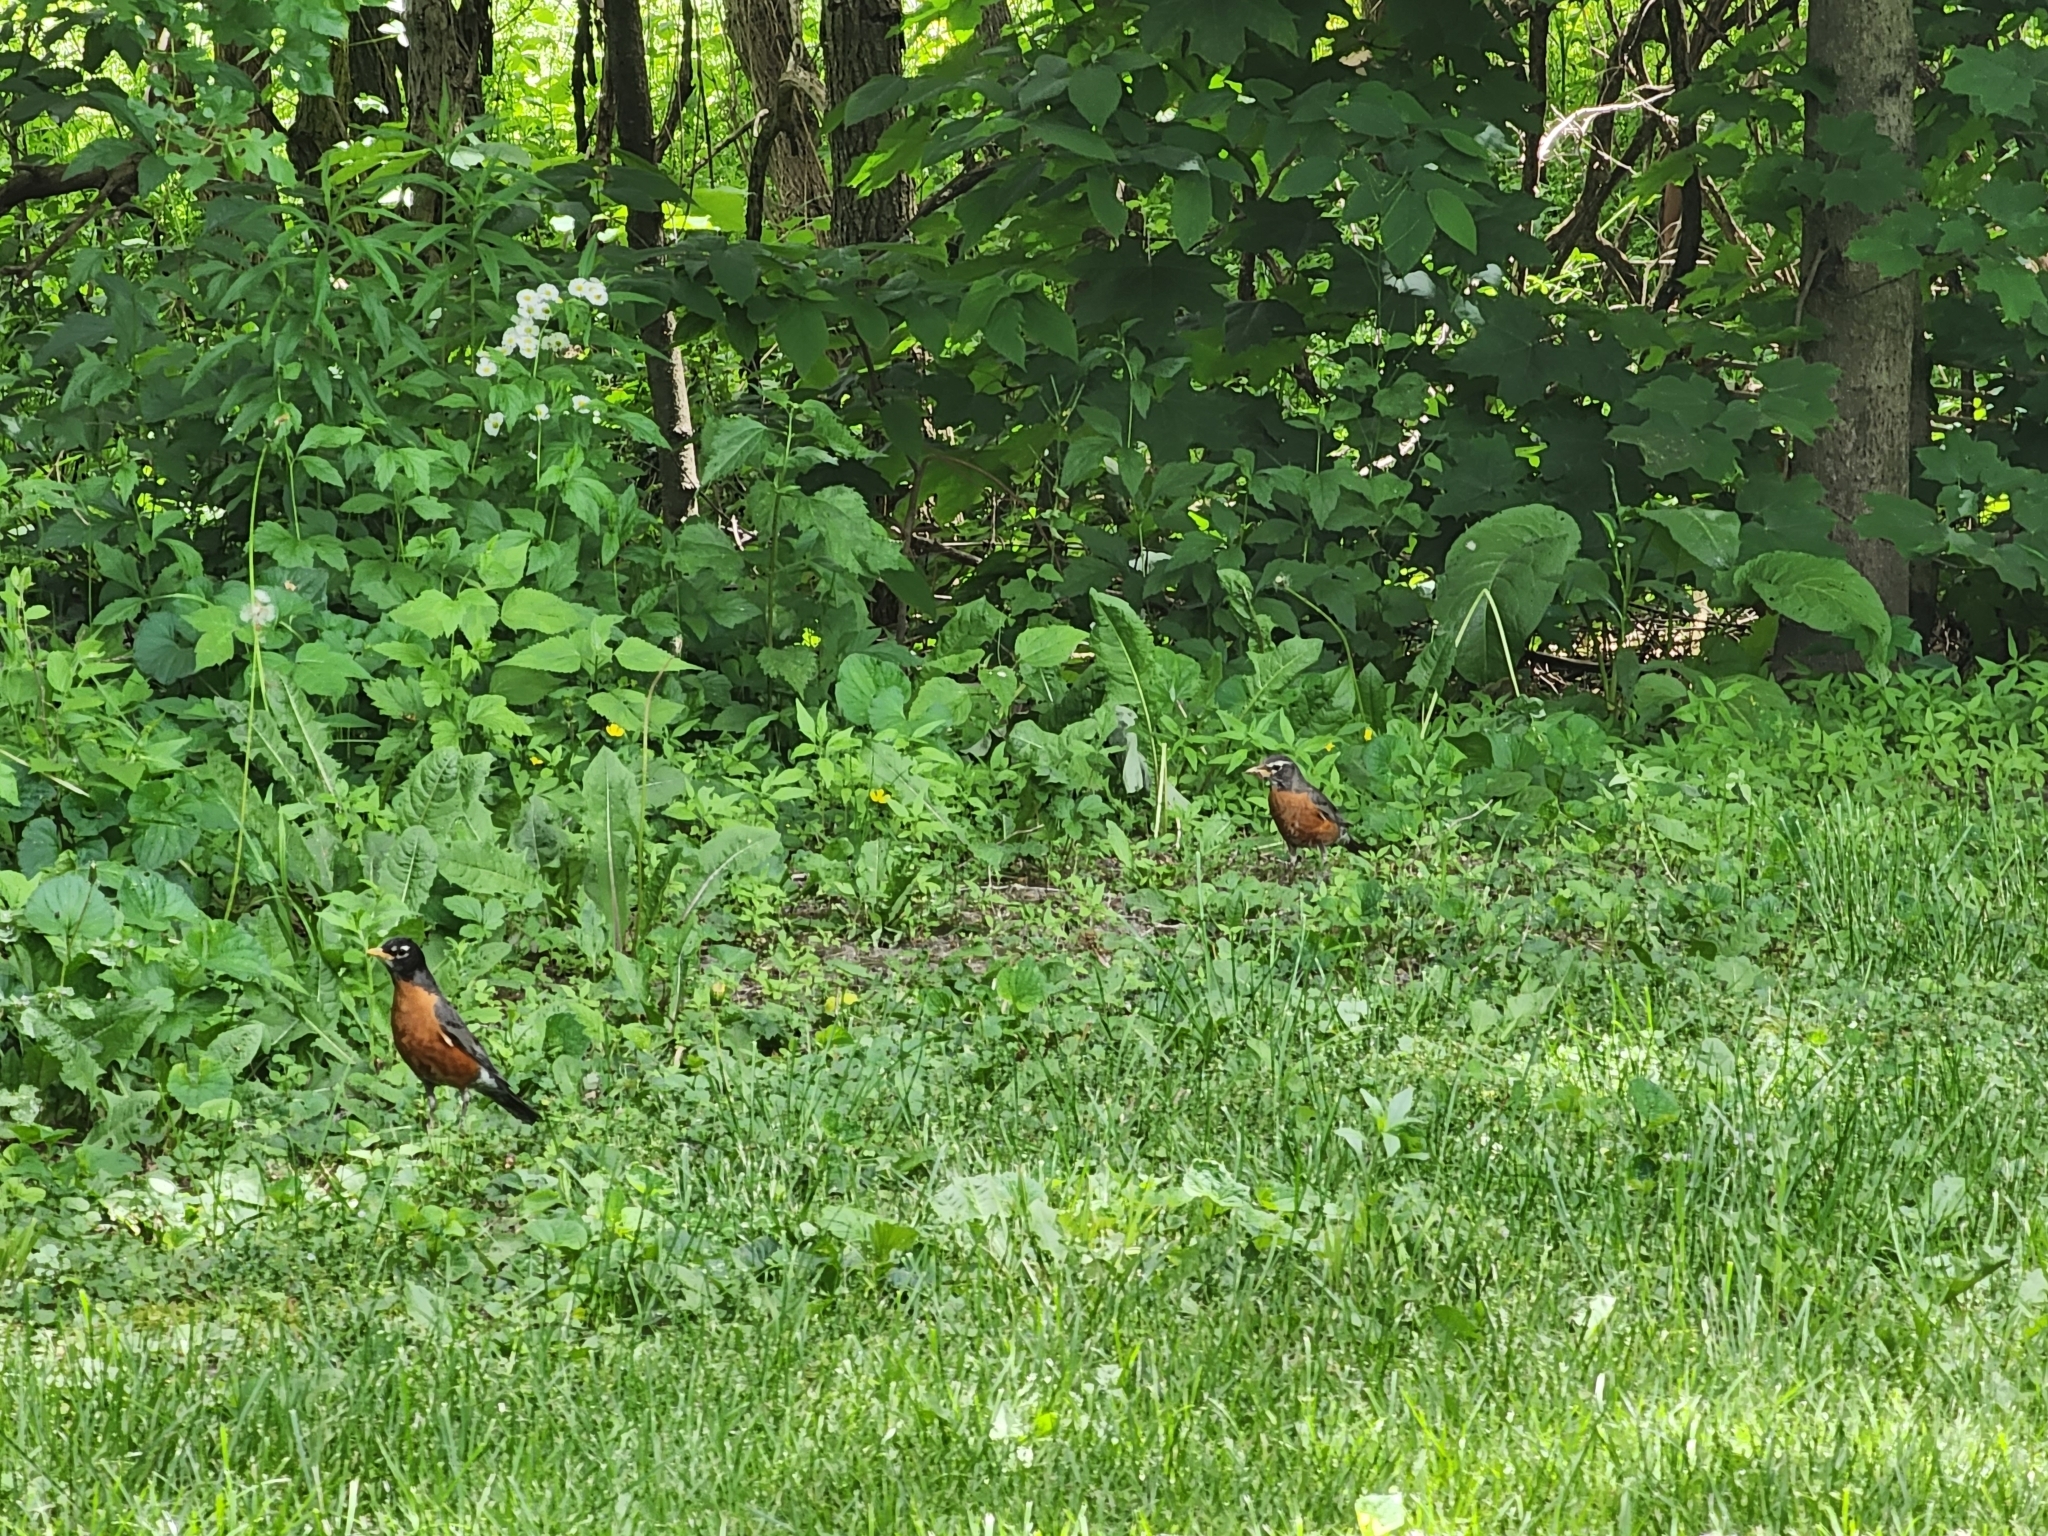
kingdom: Animalia
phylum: Chordata
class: Aves
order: Passeriformes
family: Turdidae
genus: Turdus
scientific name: Turdus migratorius
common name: American robin
